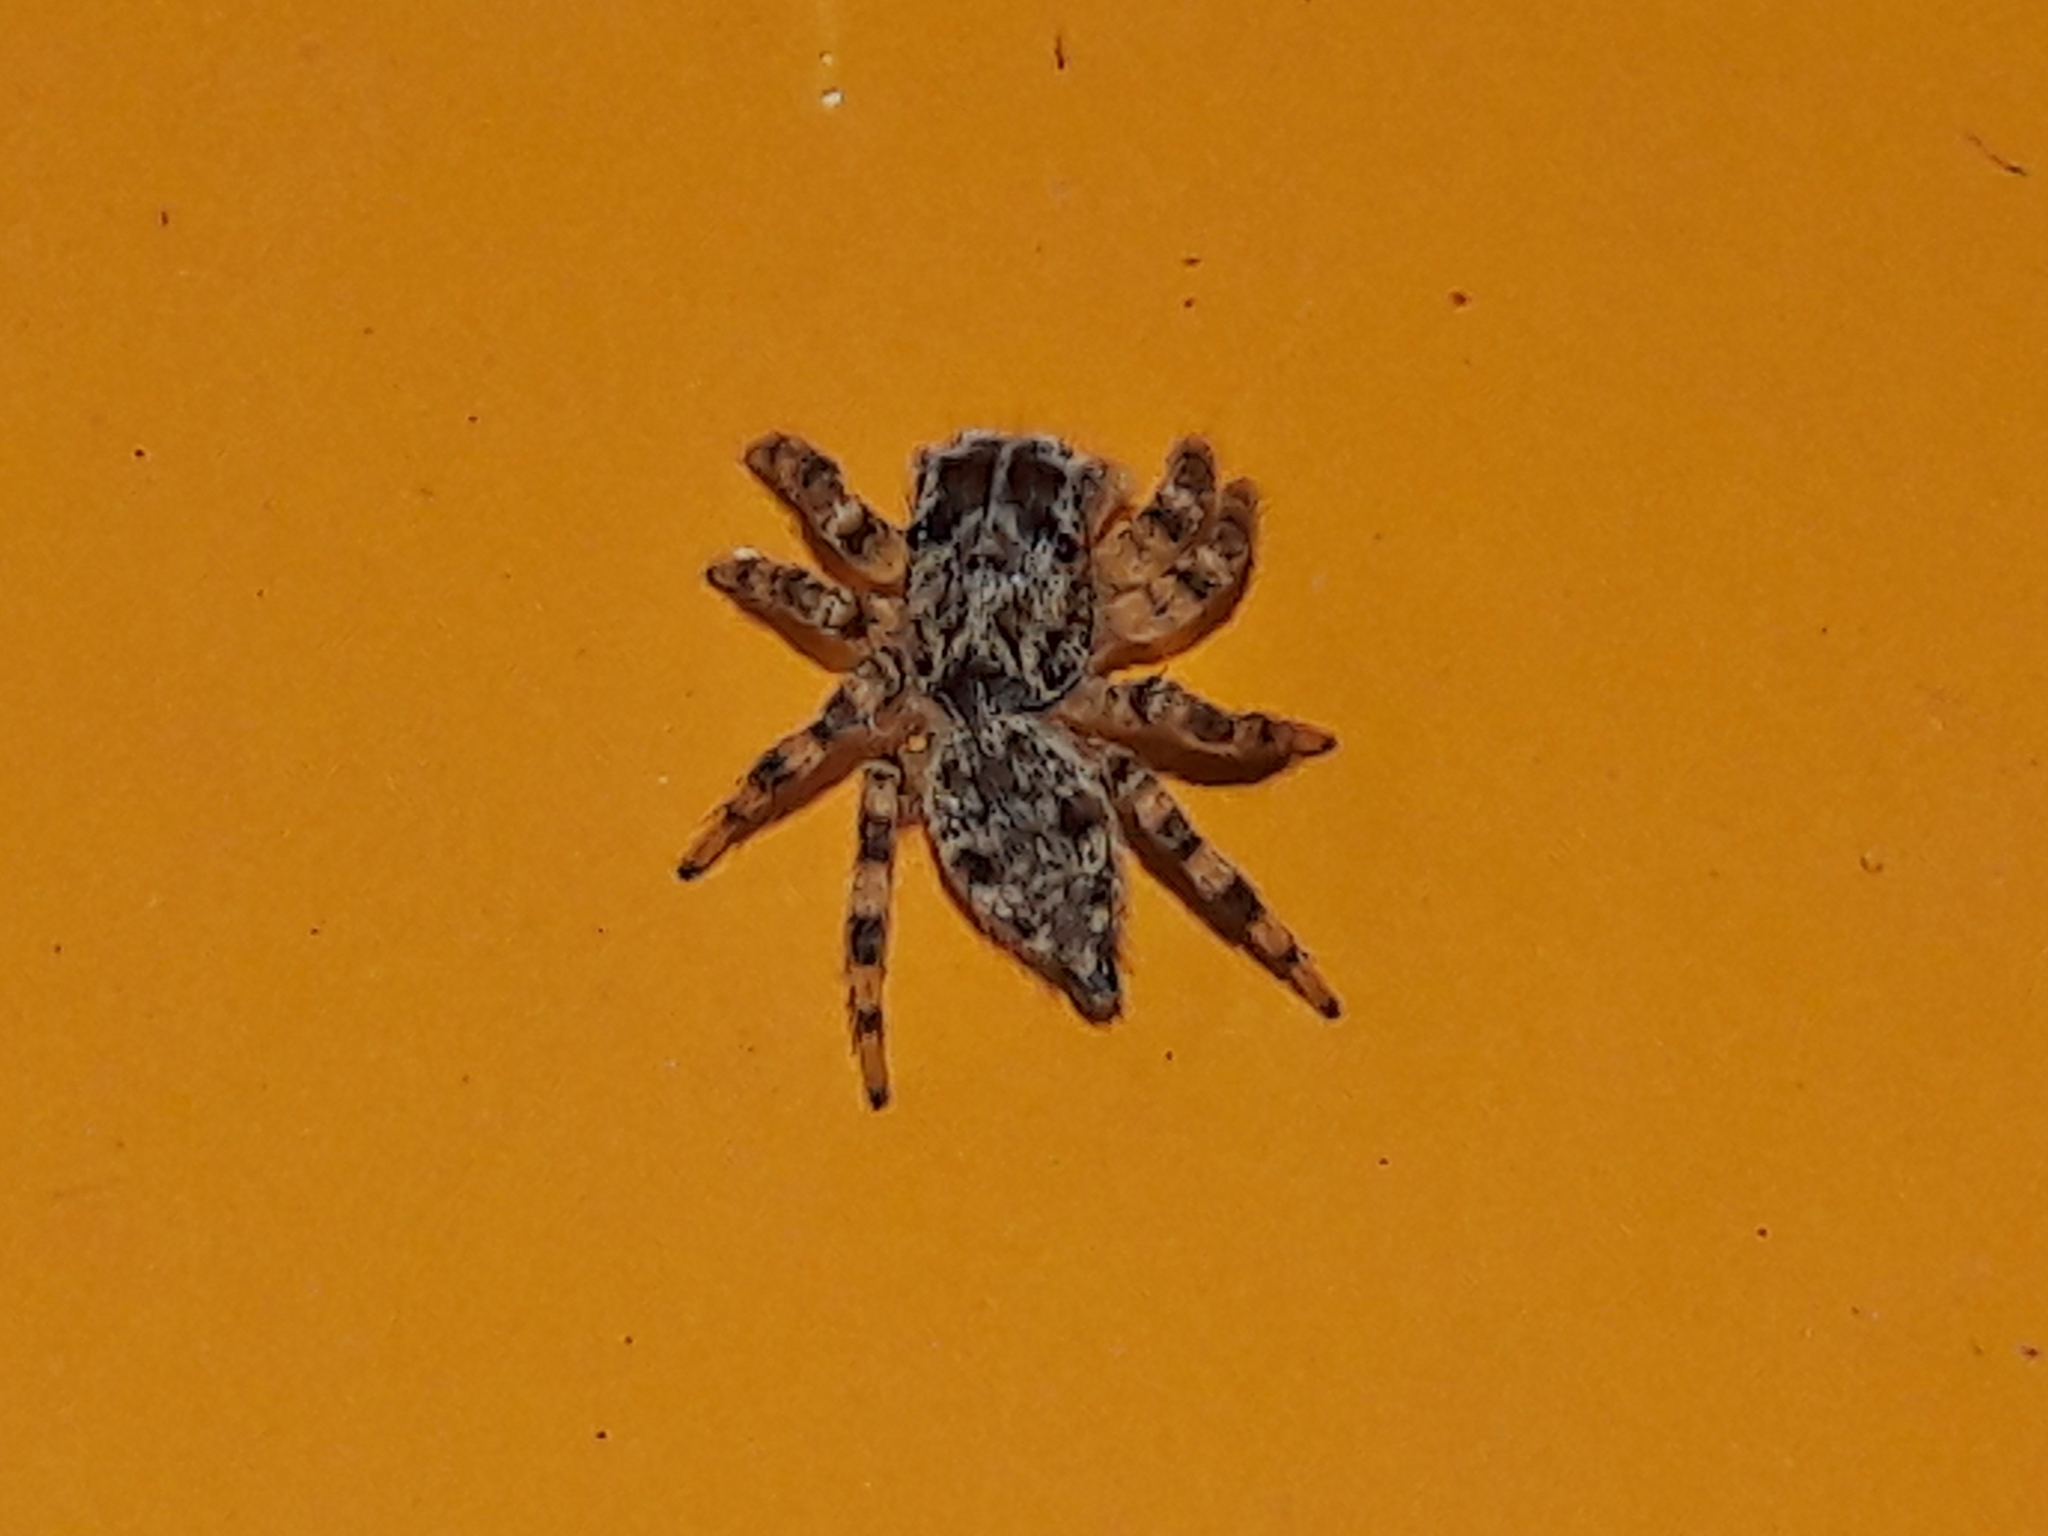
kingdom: Animalia
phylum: Arthropoda
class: Arachnida
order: Araneae
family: Salticidae
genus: Sumampattus
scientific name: Sumampattus quinqueradiatus
